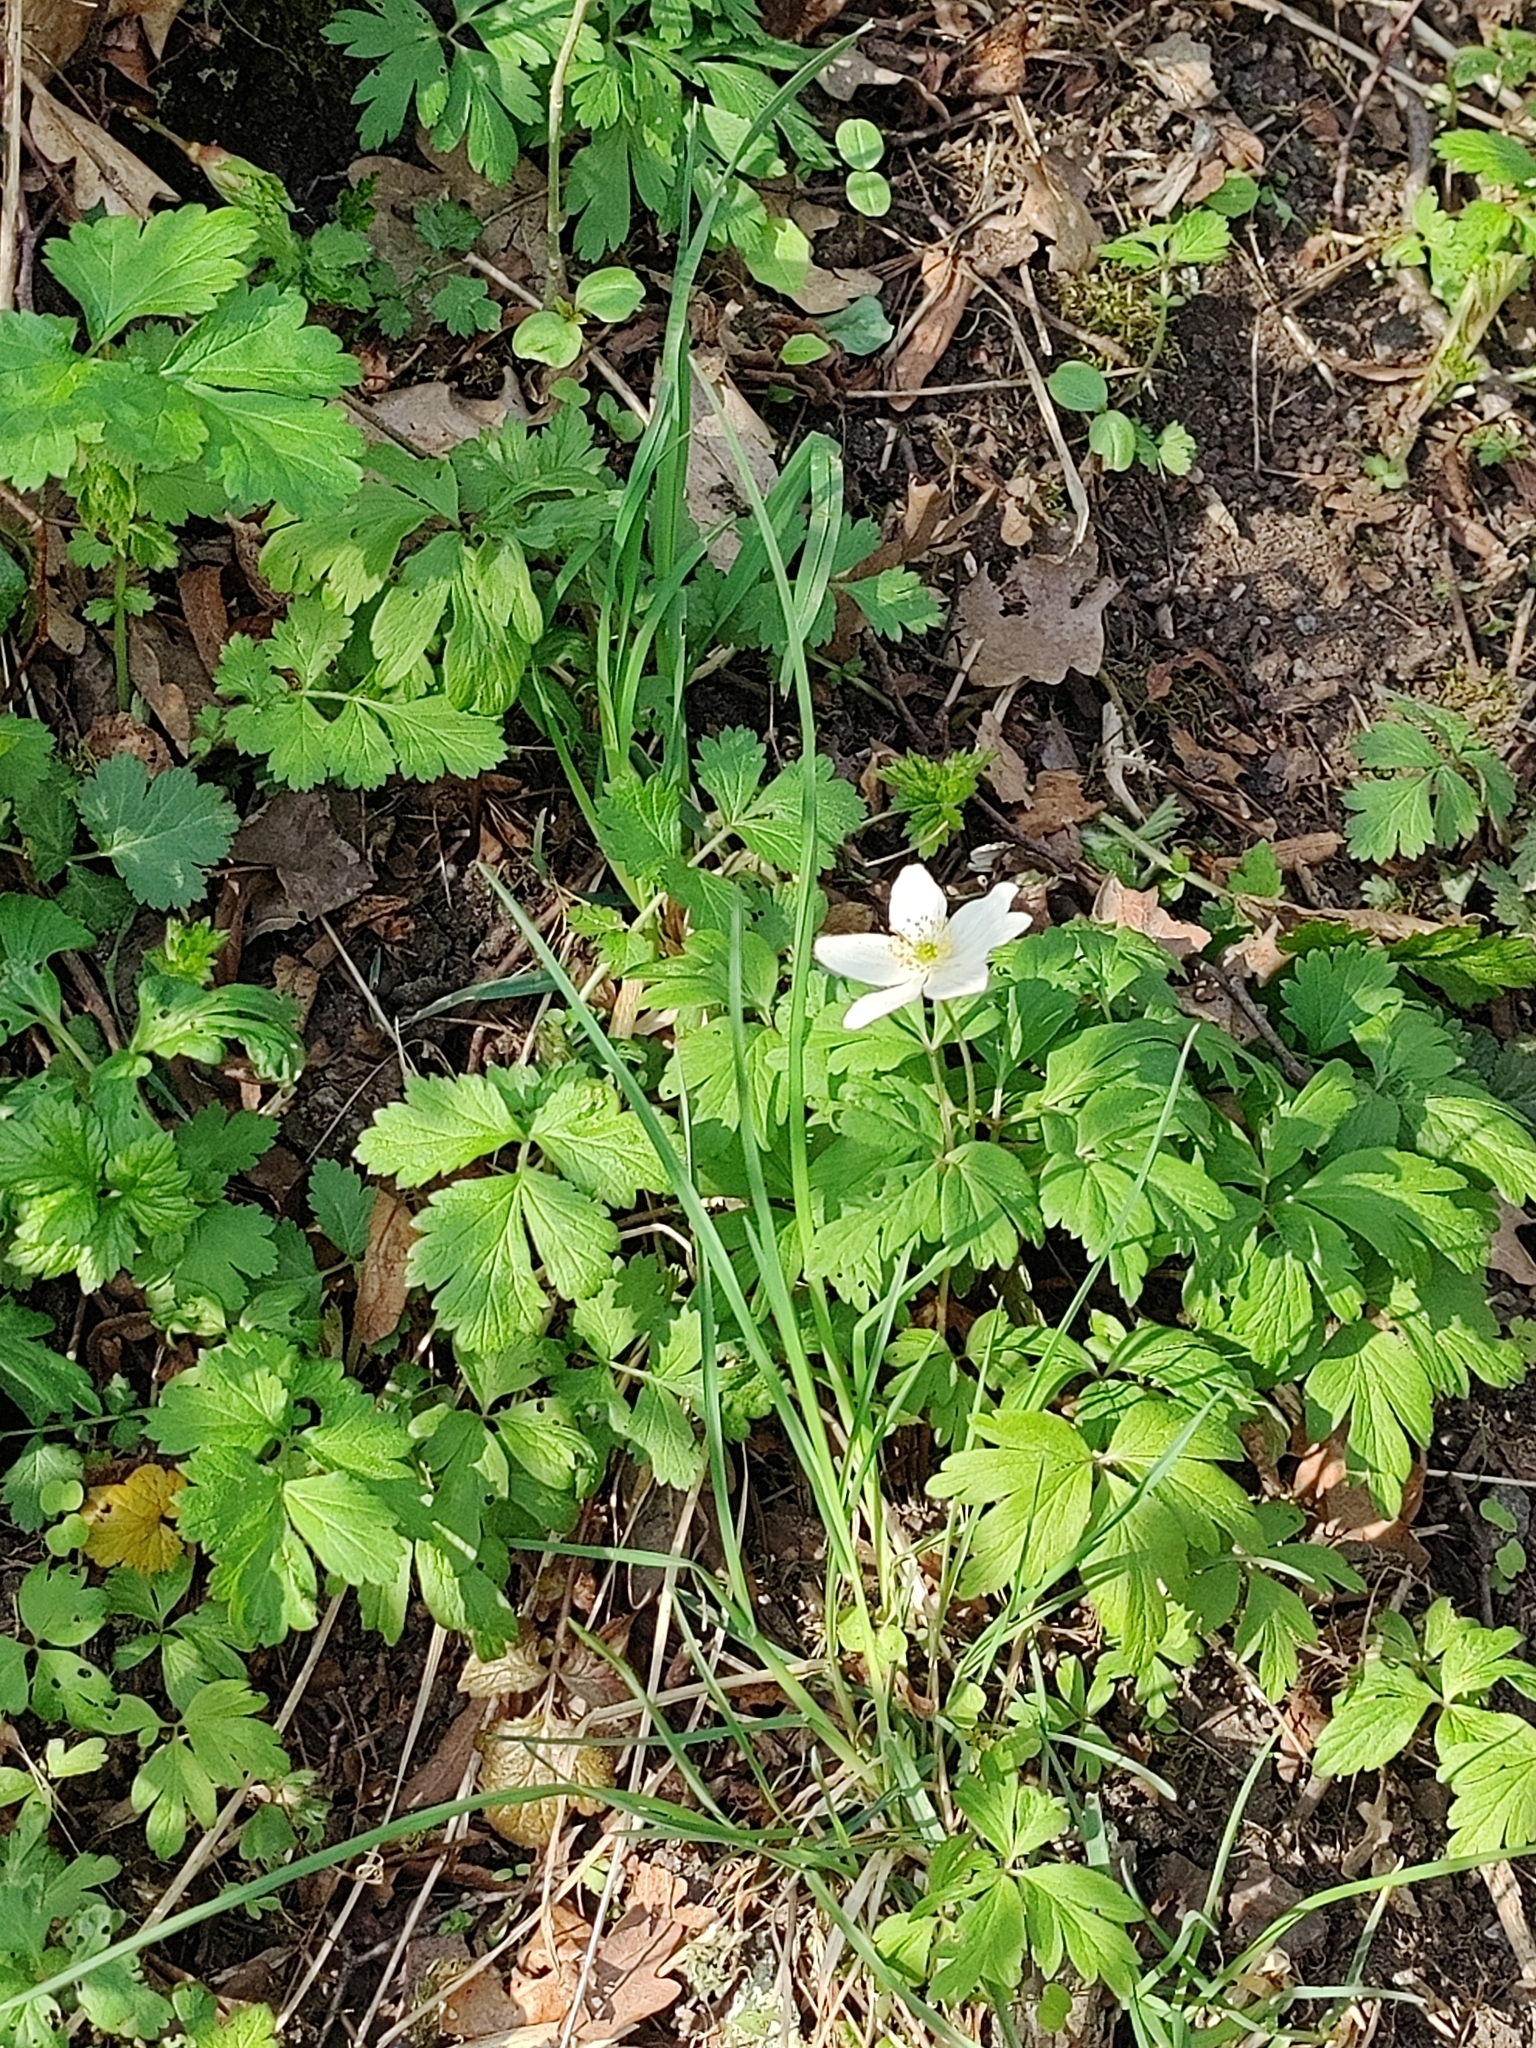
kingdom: Plantae
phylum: Tracheophyta
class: Magnoliopsida
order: Ranunculales
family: Ranunculaceae
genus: Anemone
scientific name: Anemone nemorosa
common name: Wood anemone
